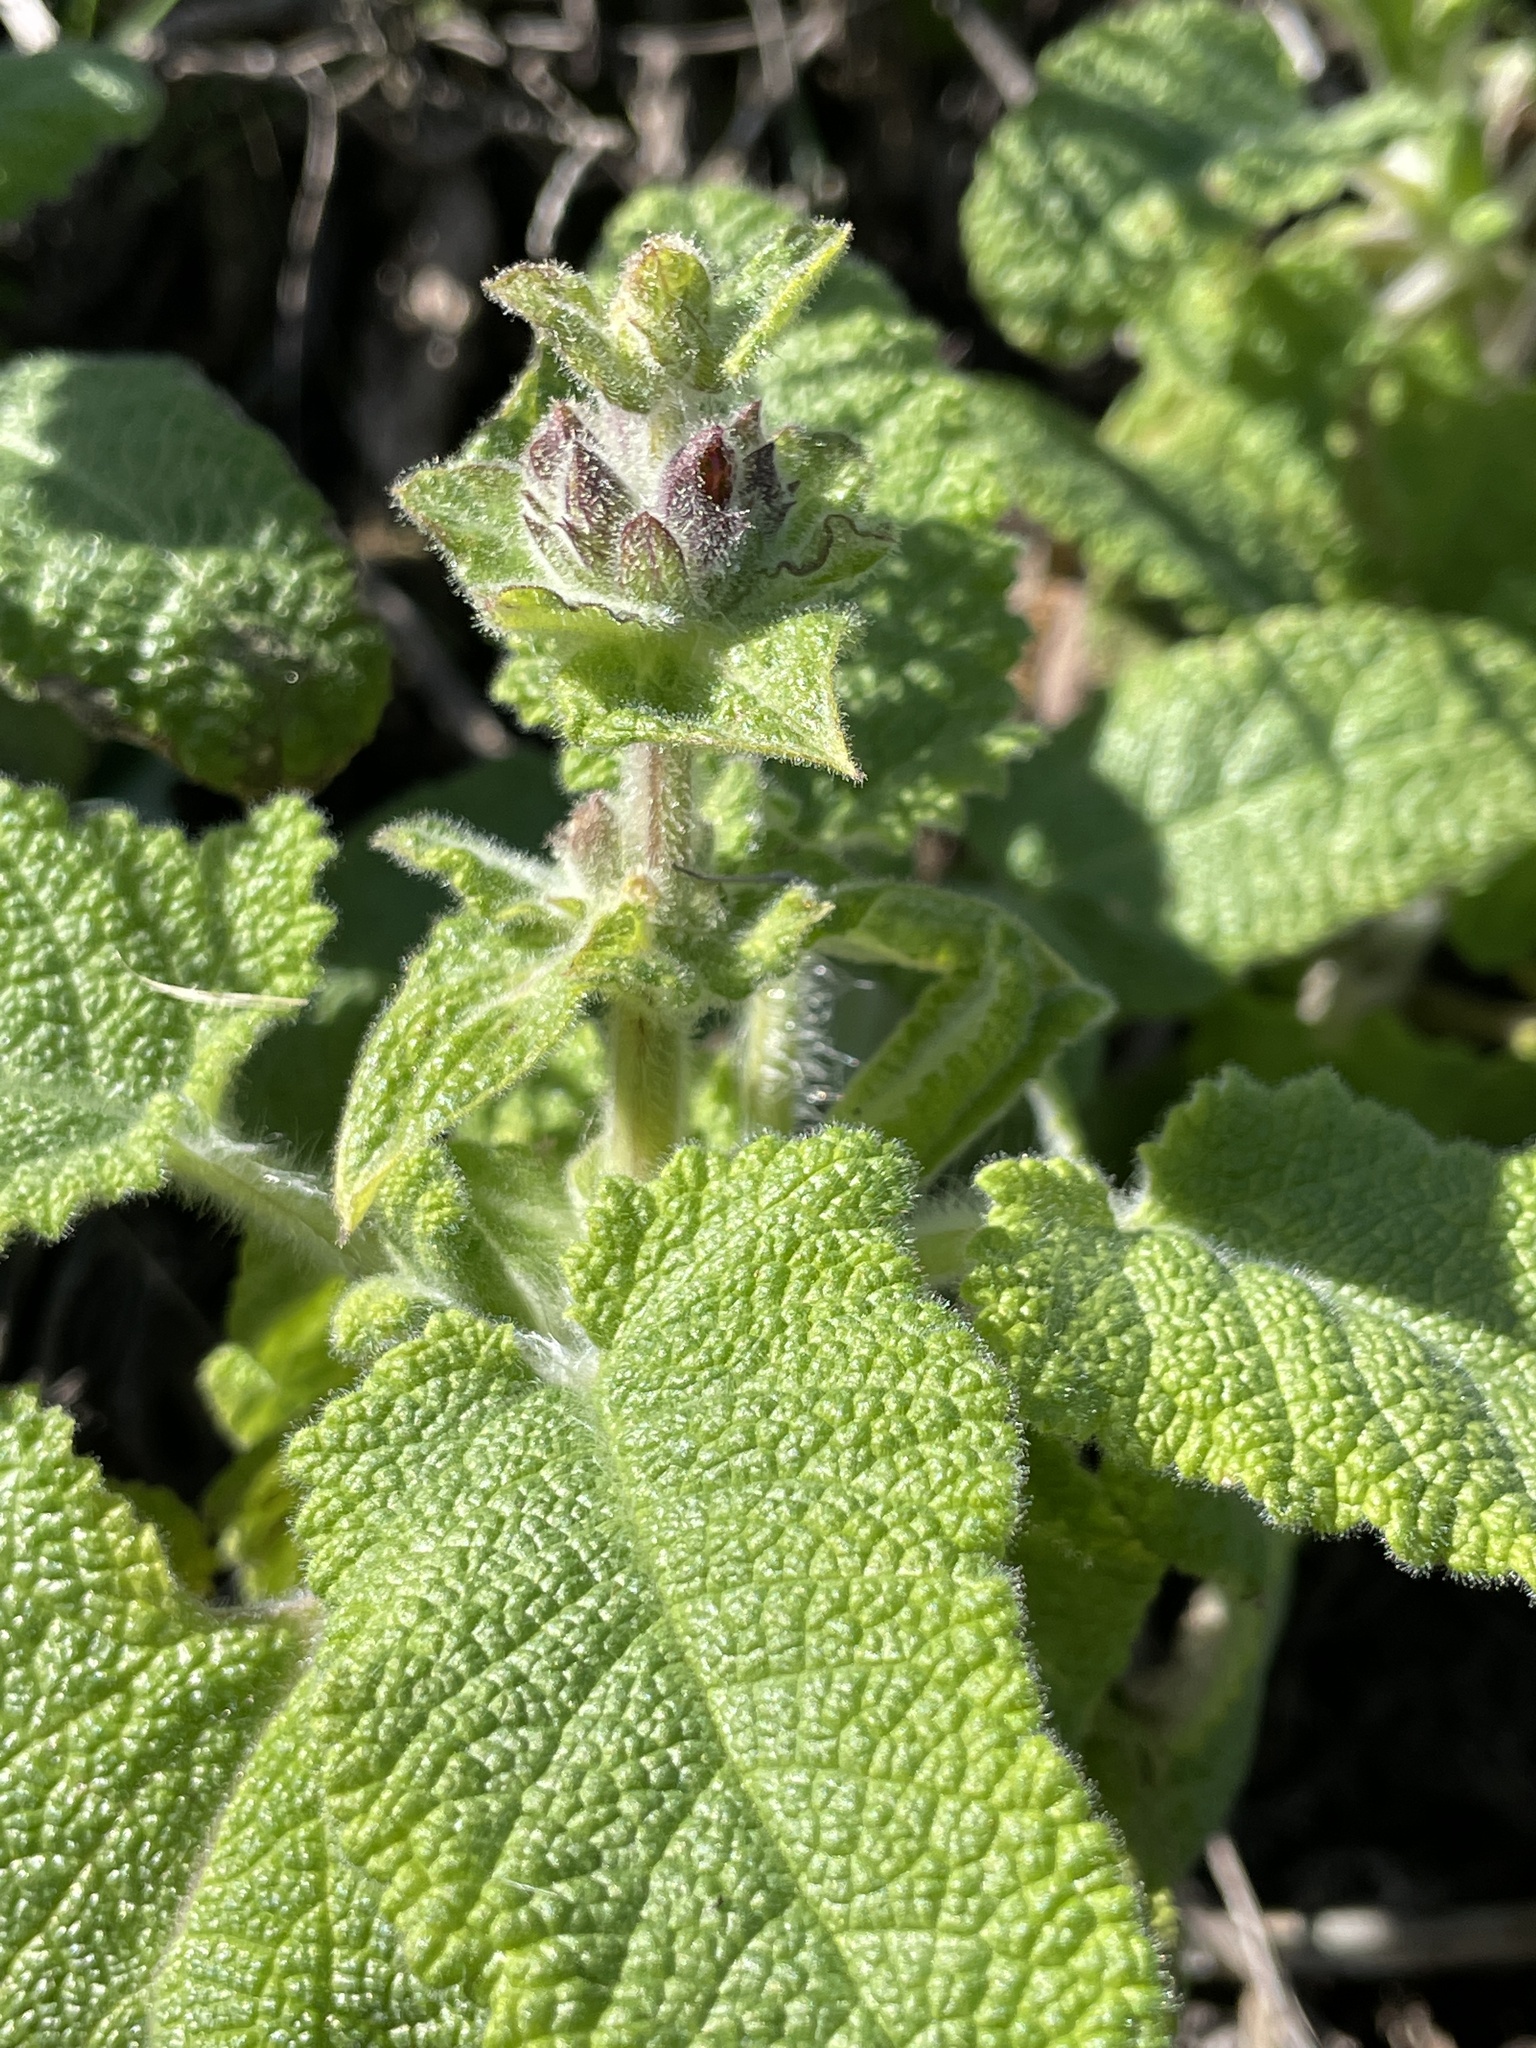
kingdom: Plantae
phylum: Tracheophyta
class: Magnoliopsida
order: Lamiales
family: Lamiaceae
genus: Salvia
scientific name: Salvia spathacea
